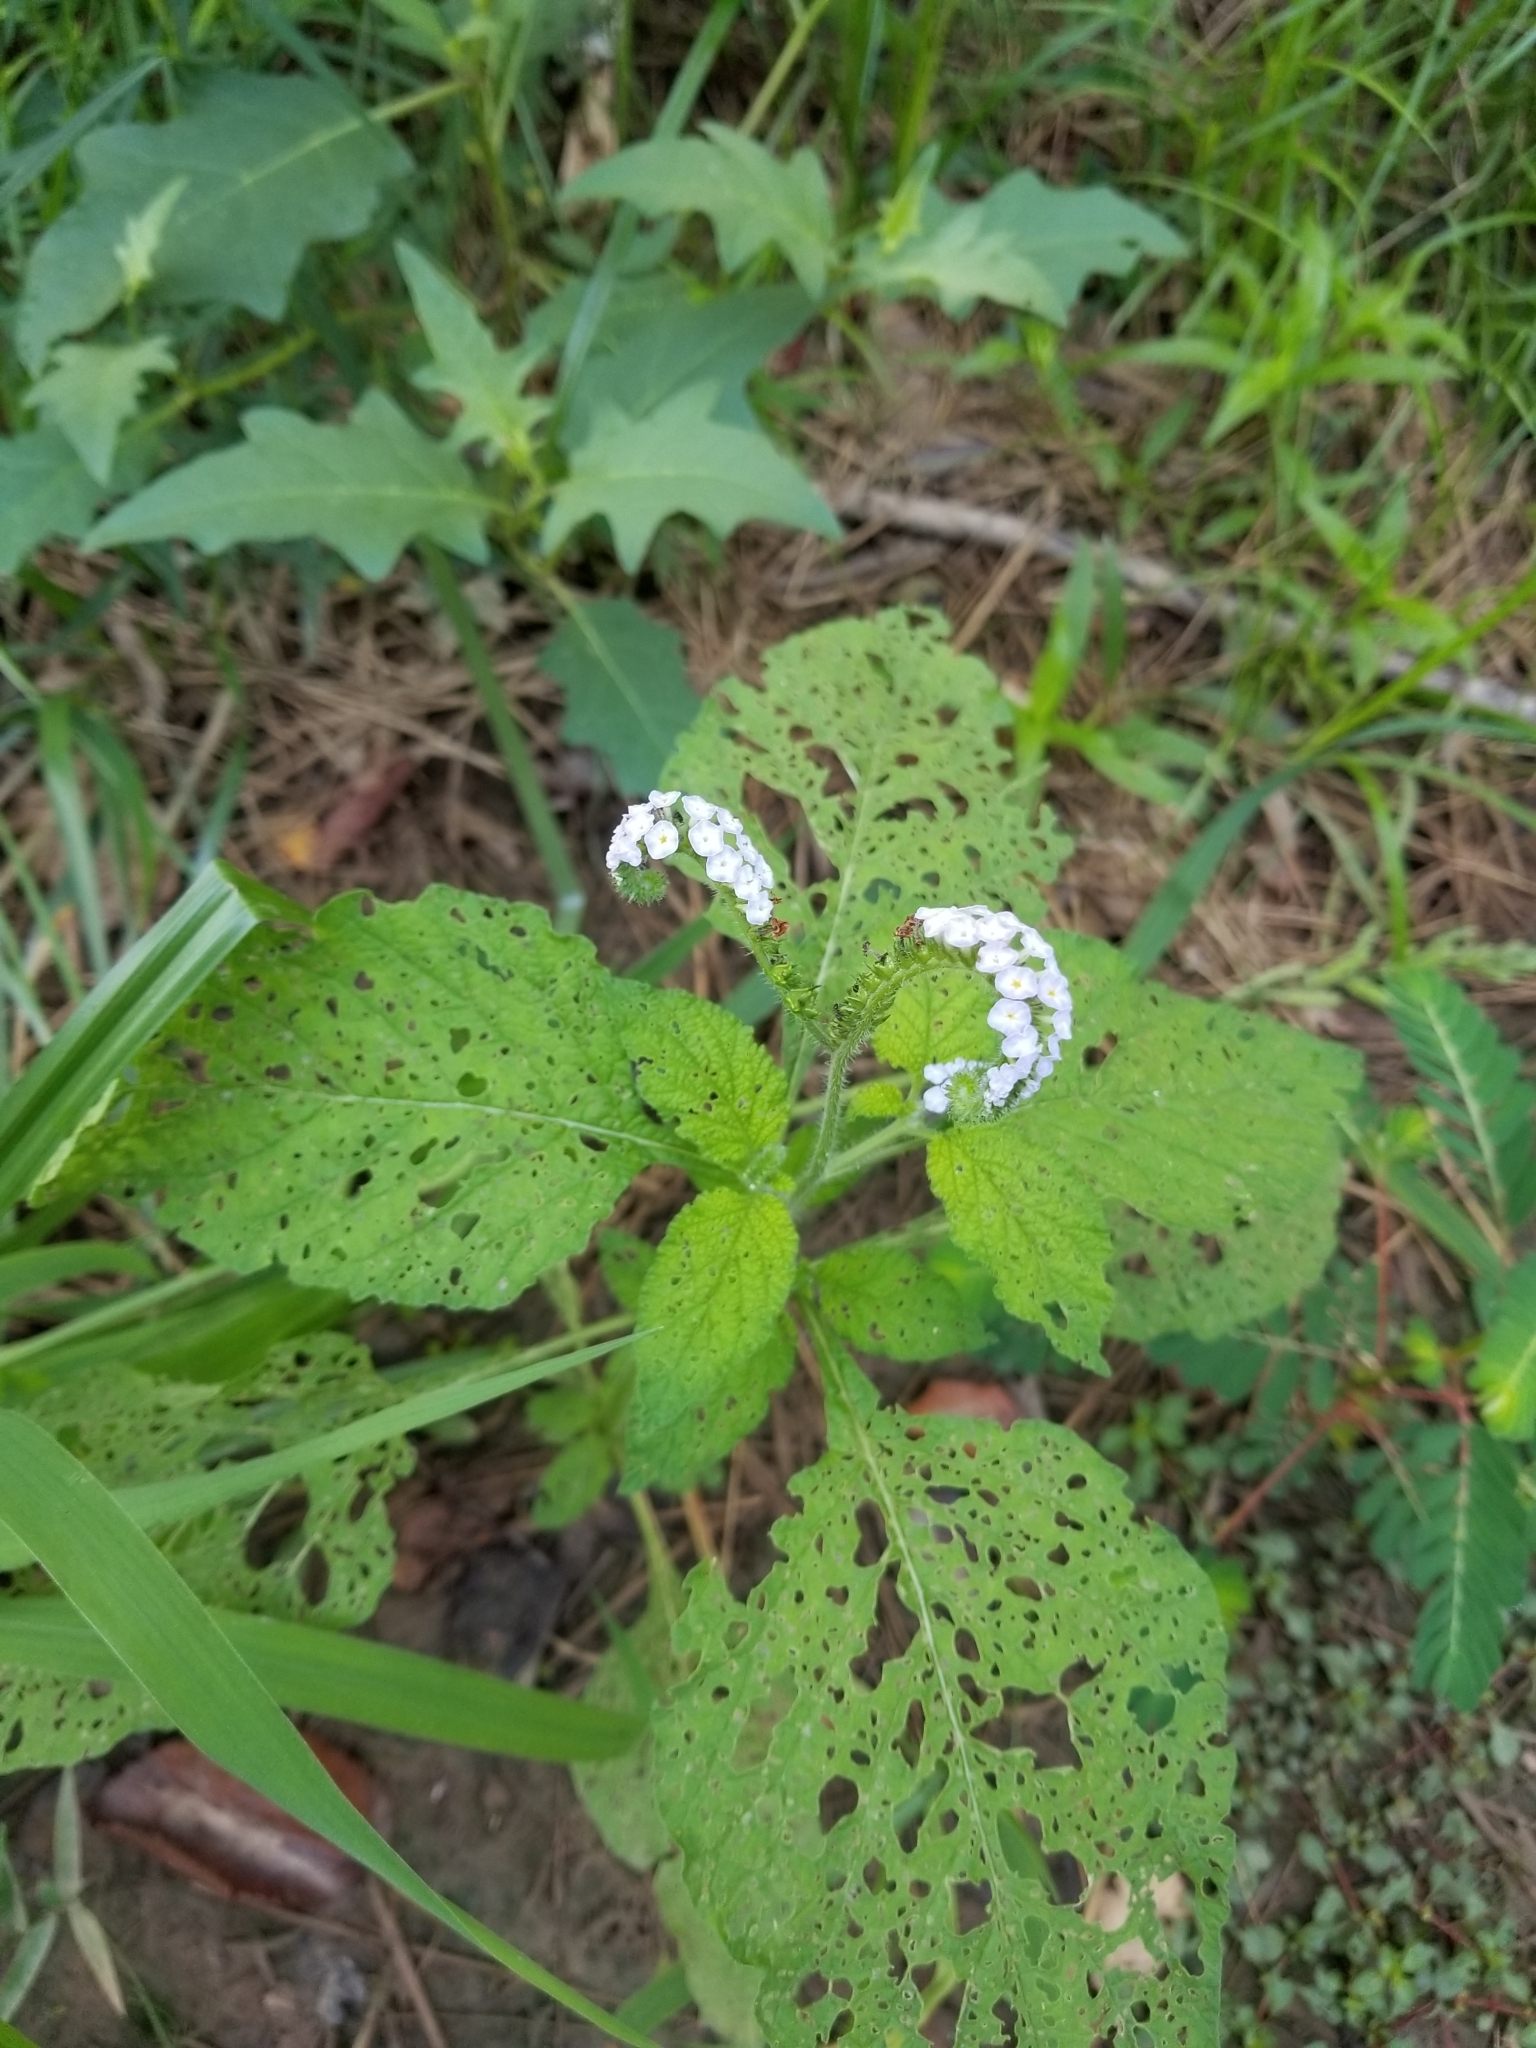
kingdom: Plantae
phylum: Tracheophyta
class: Magnoliopsida
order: Boraginales
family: Heliotropiaceae
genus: Heliotropium
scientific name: Heliotropium indicum
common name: Indian heliotrope
